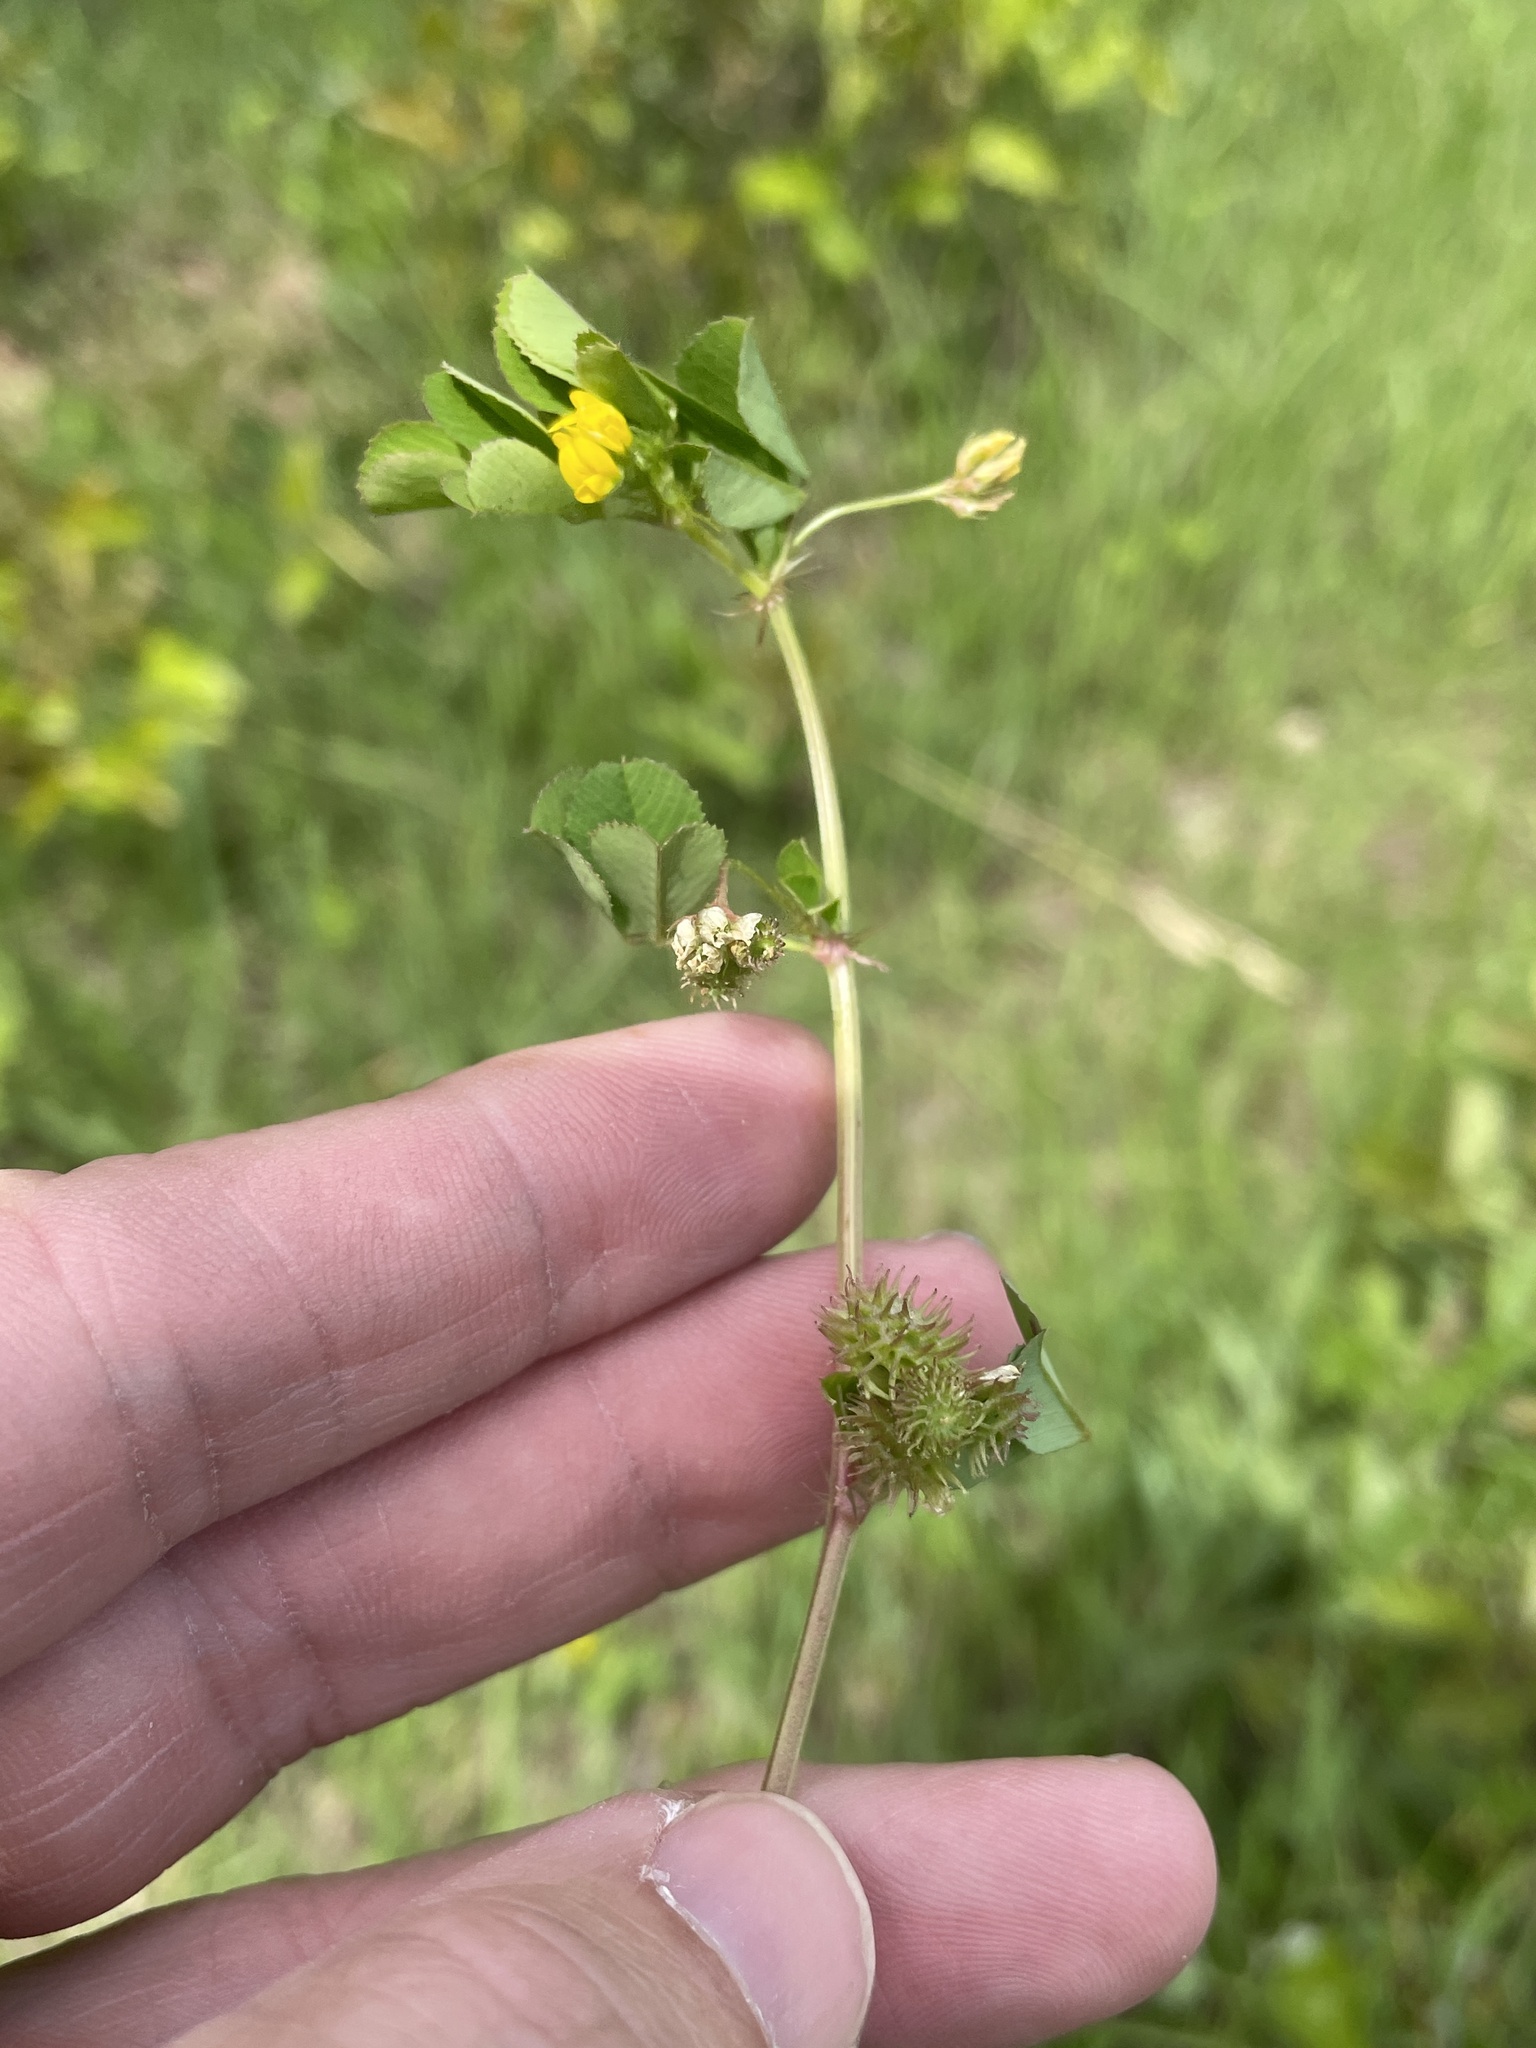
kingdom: Plantae
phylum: Tracheophyta
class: Magnoliopsida
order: Fabales
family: Fabaceae
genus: Medicago
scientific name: Medicago polymorpha
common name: Burclover
